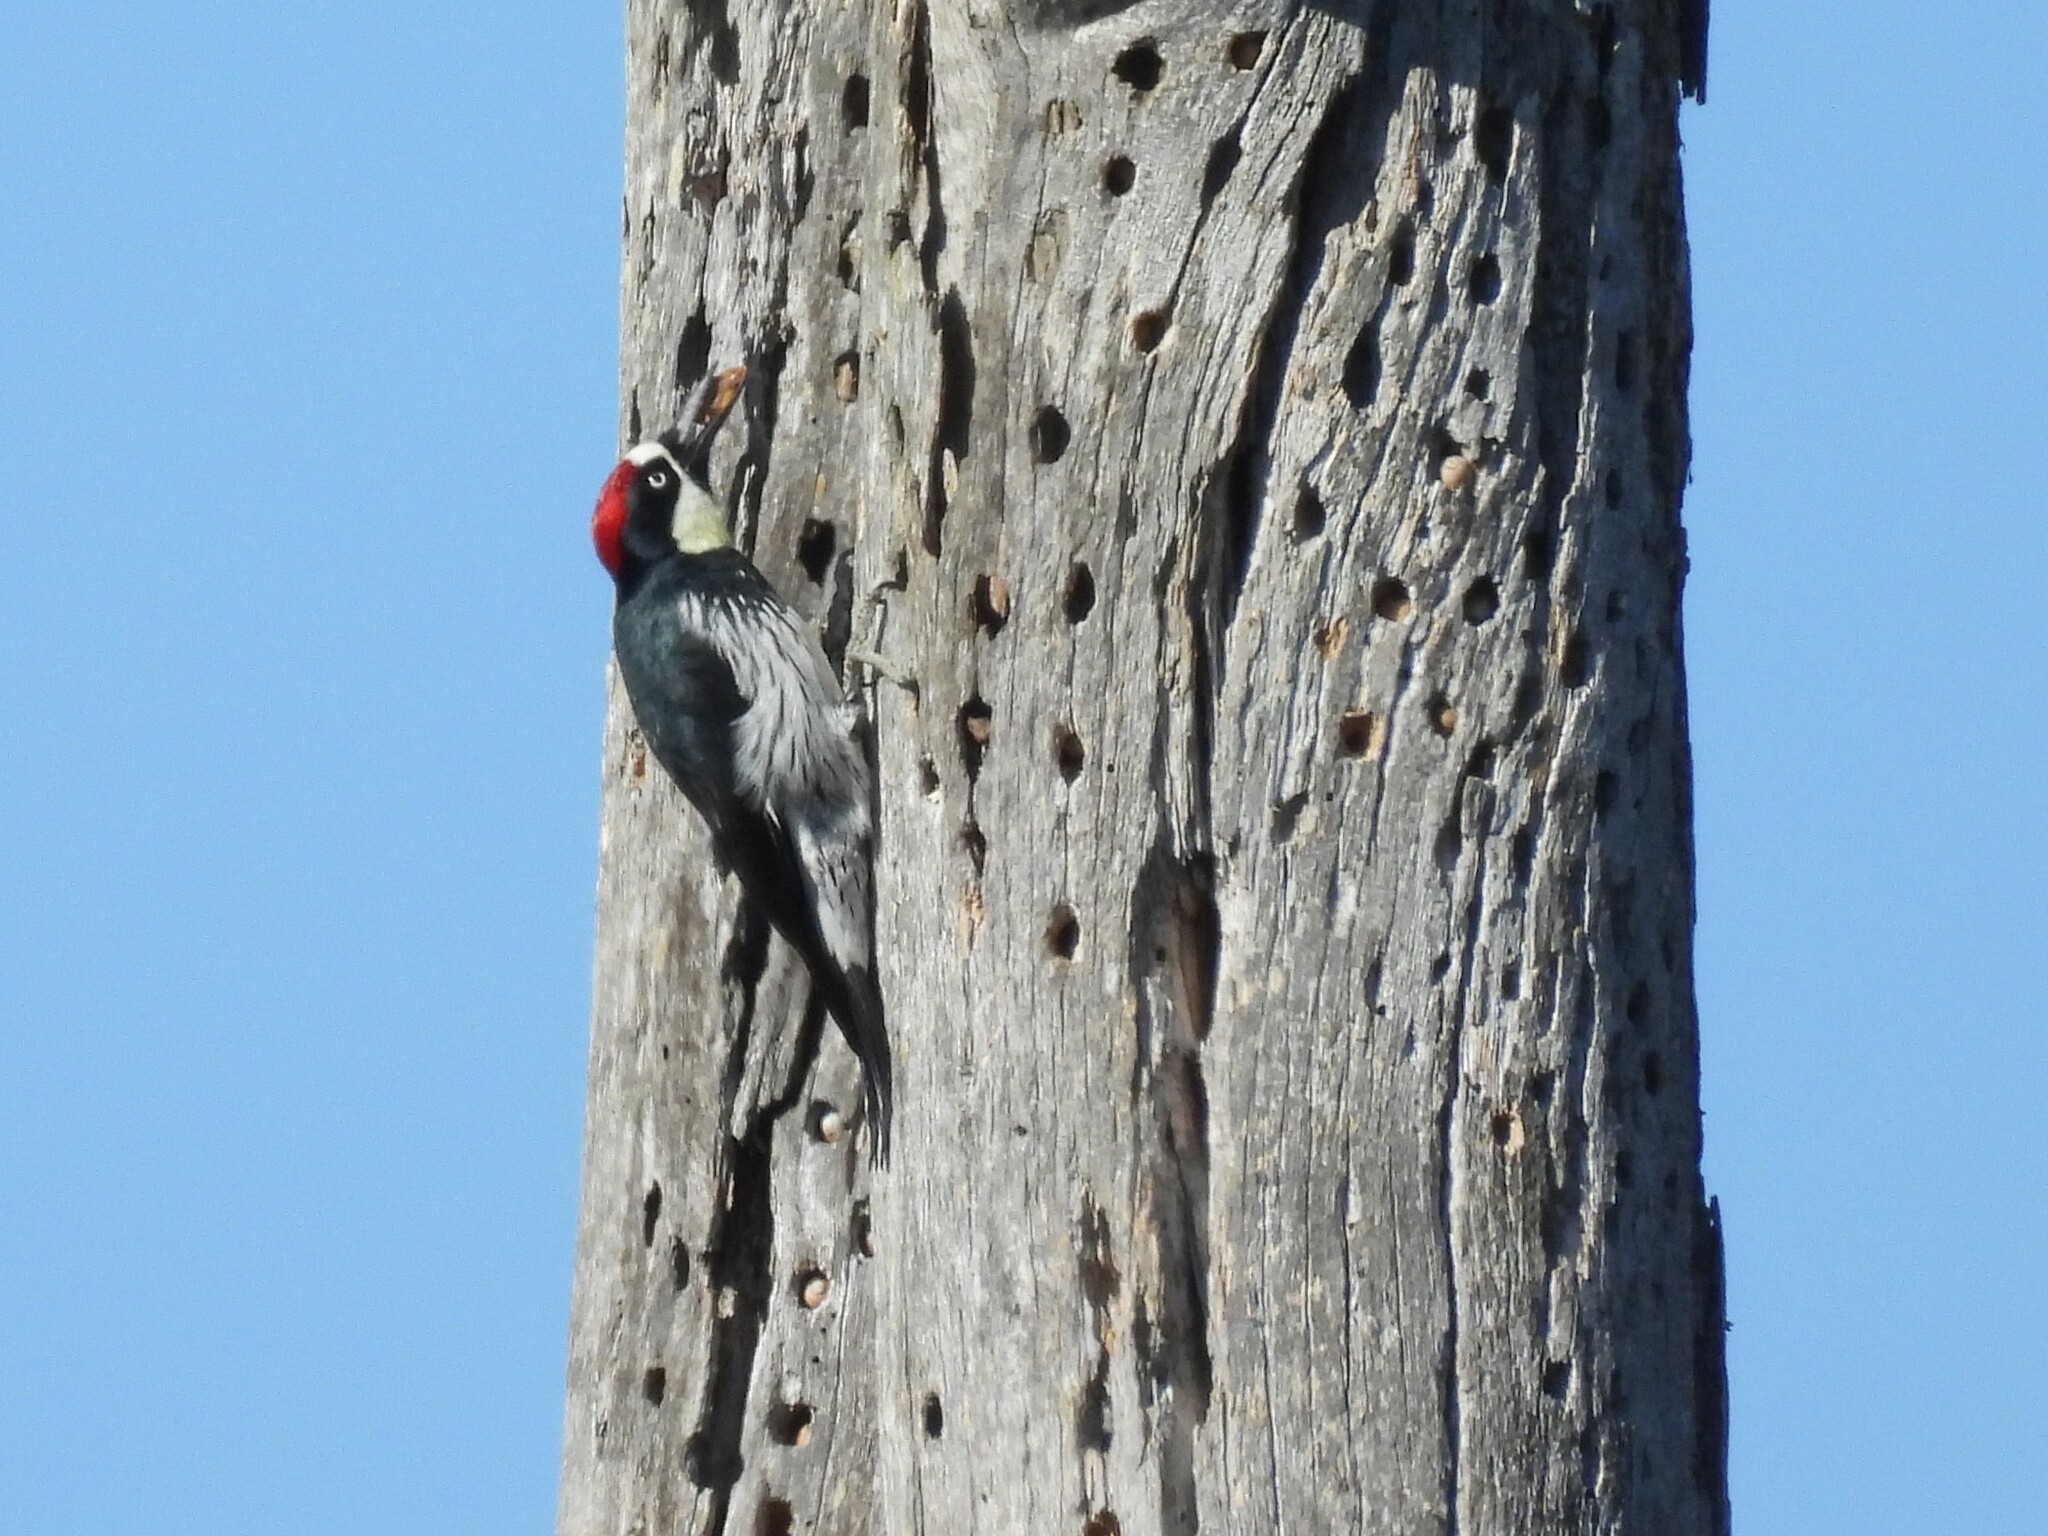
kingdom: Animalia
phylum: Chordata
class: Aves
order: Piciformes
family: Picidae
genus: Melanerpes
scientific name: Melanerpes formicivorus
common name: Acorn woodpecker
